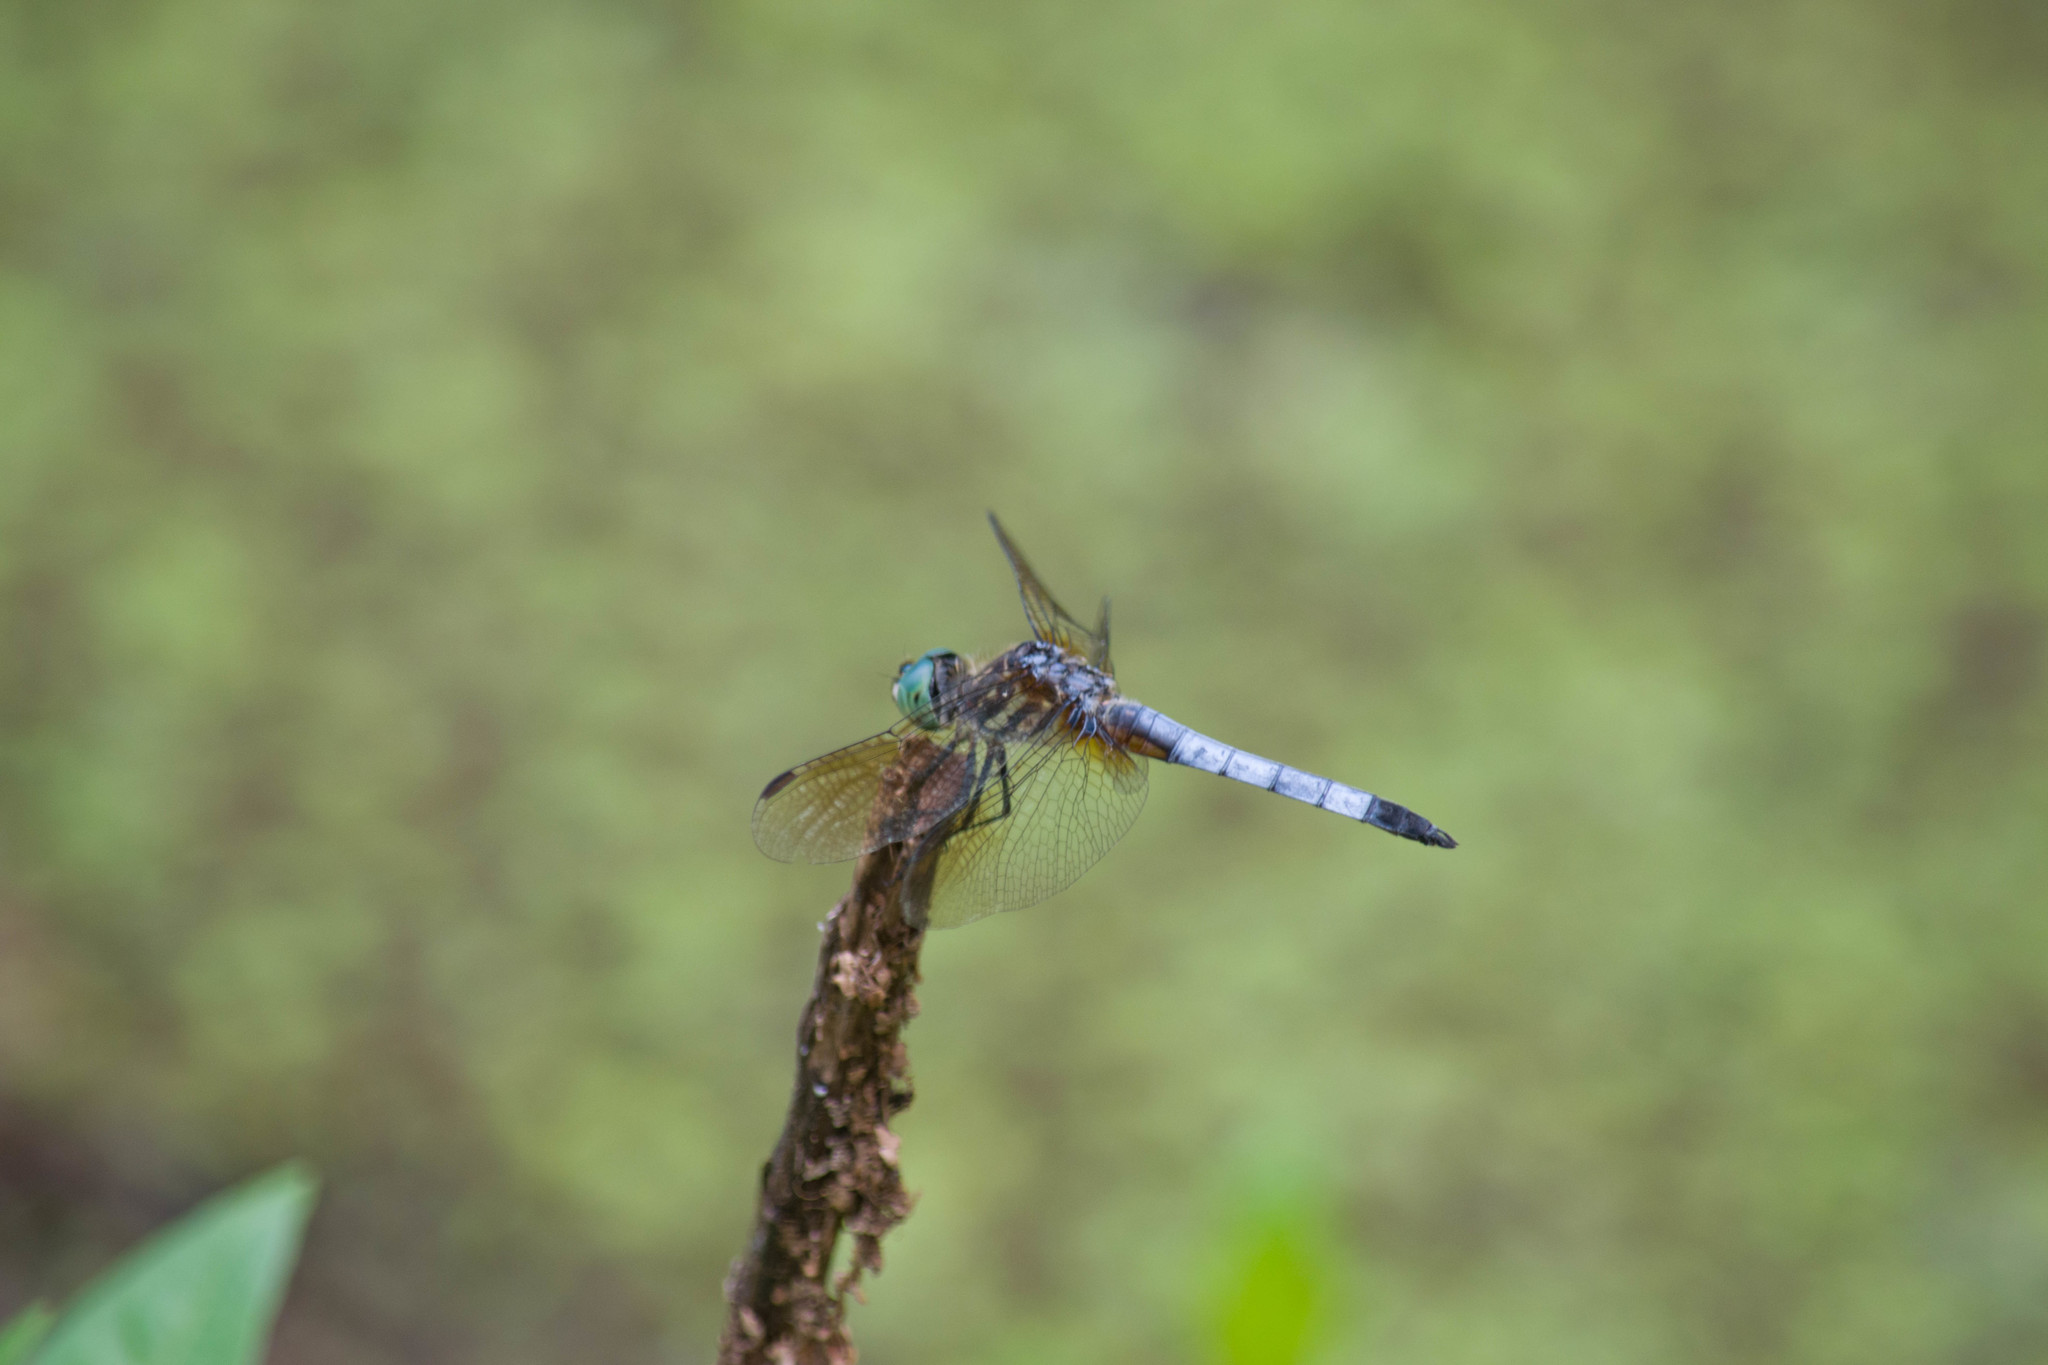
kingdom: Animalia
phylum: Arthropoda
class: Insecta
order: Odonata
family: Libellulidae
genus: Pachydiplax
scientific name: Pachydiplax longipennis
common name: Blue dasher
